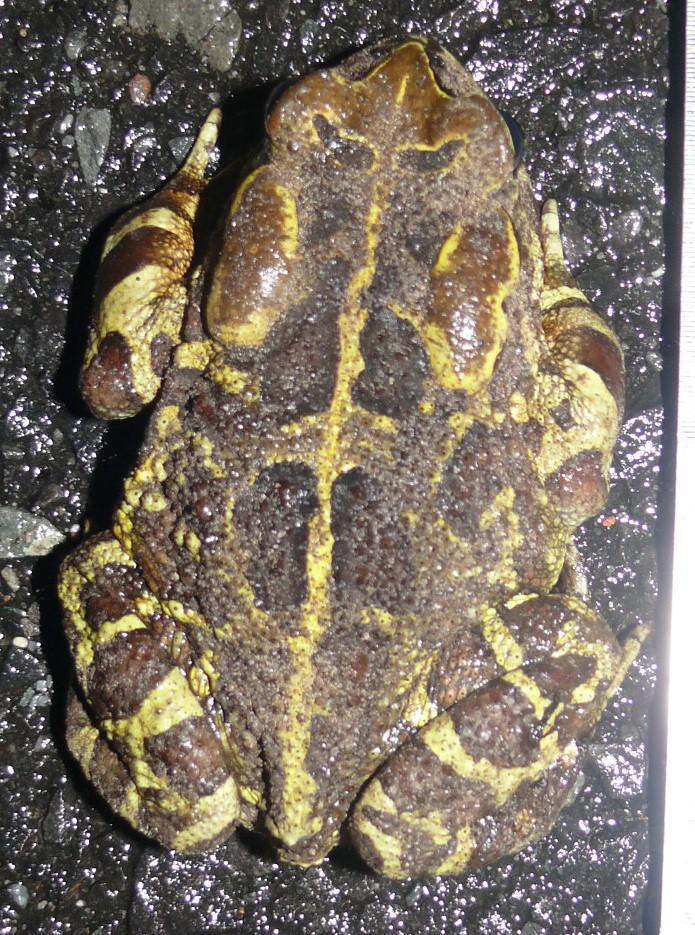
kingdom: Animalia
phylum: Chordata
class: Amphibia
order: Anura
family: Bufonidae
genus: Sclerophrys
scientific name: Sclerophrys pantherina
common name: Panther toad
